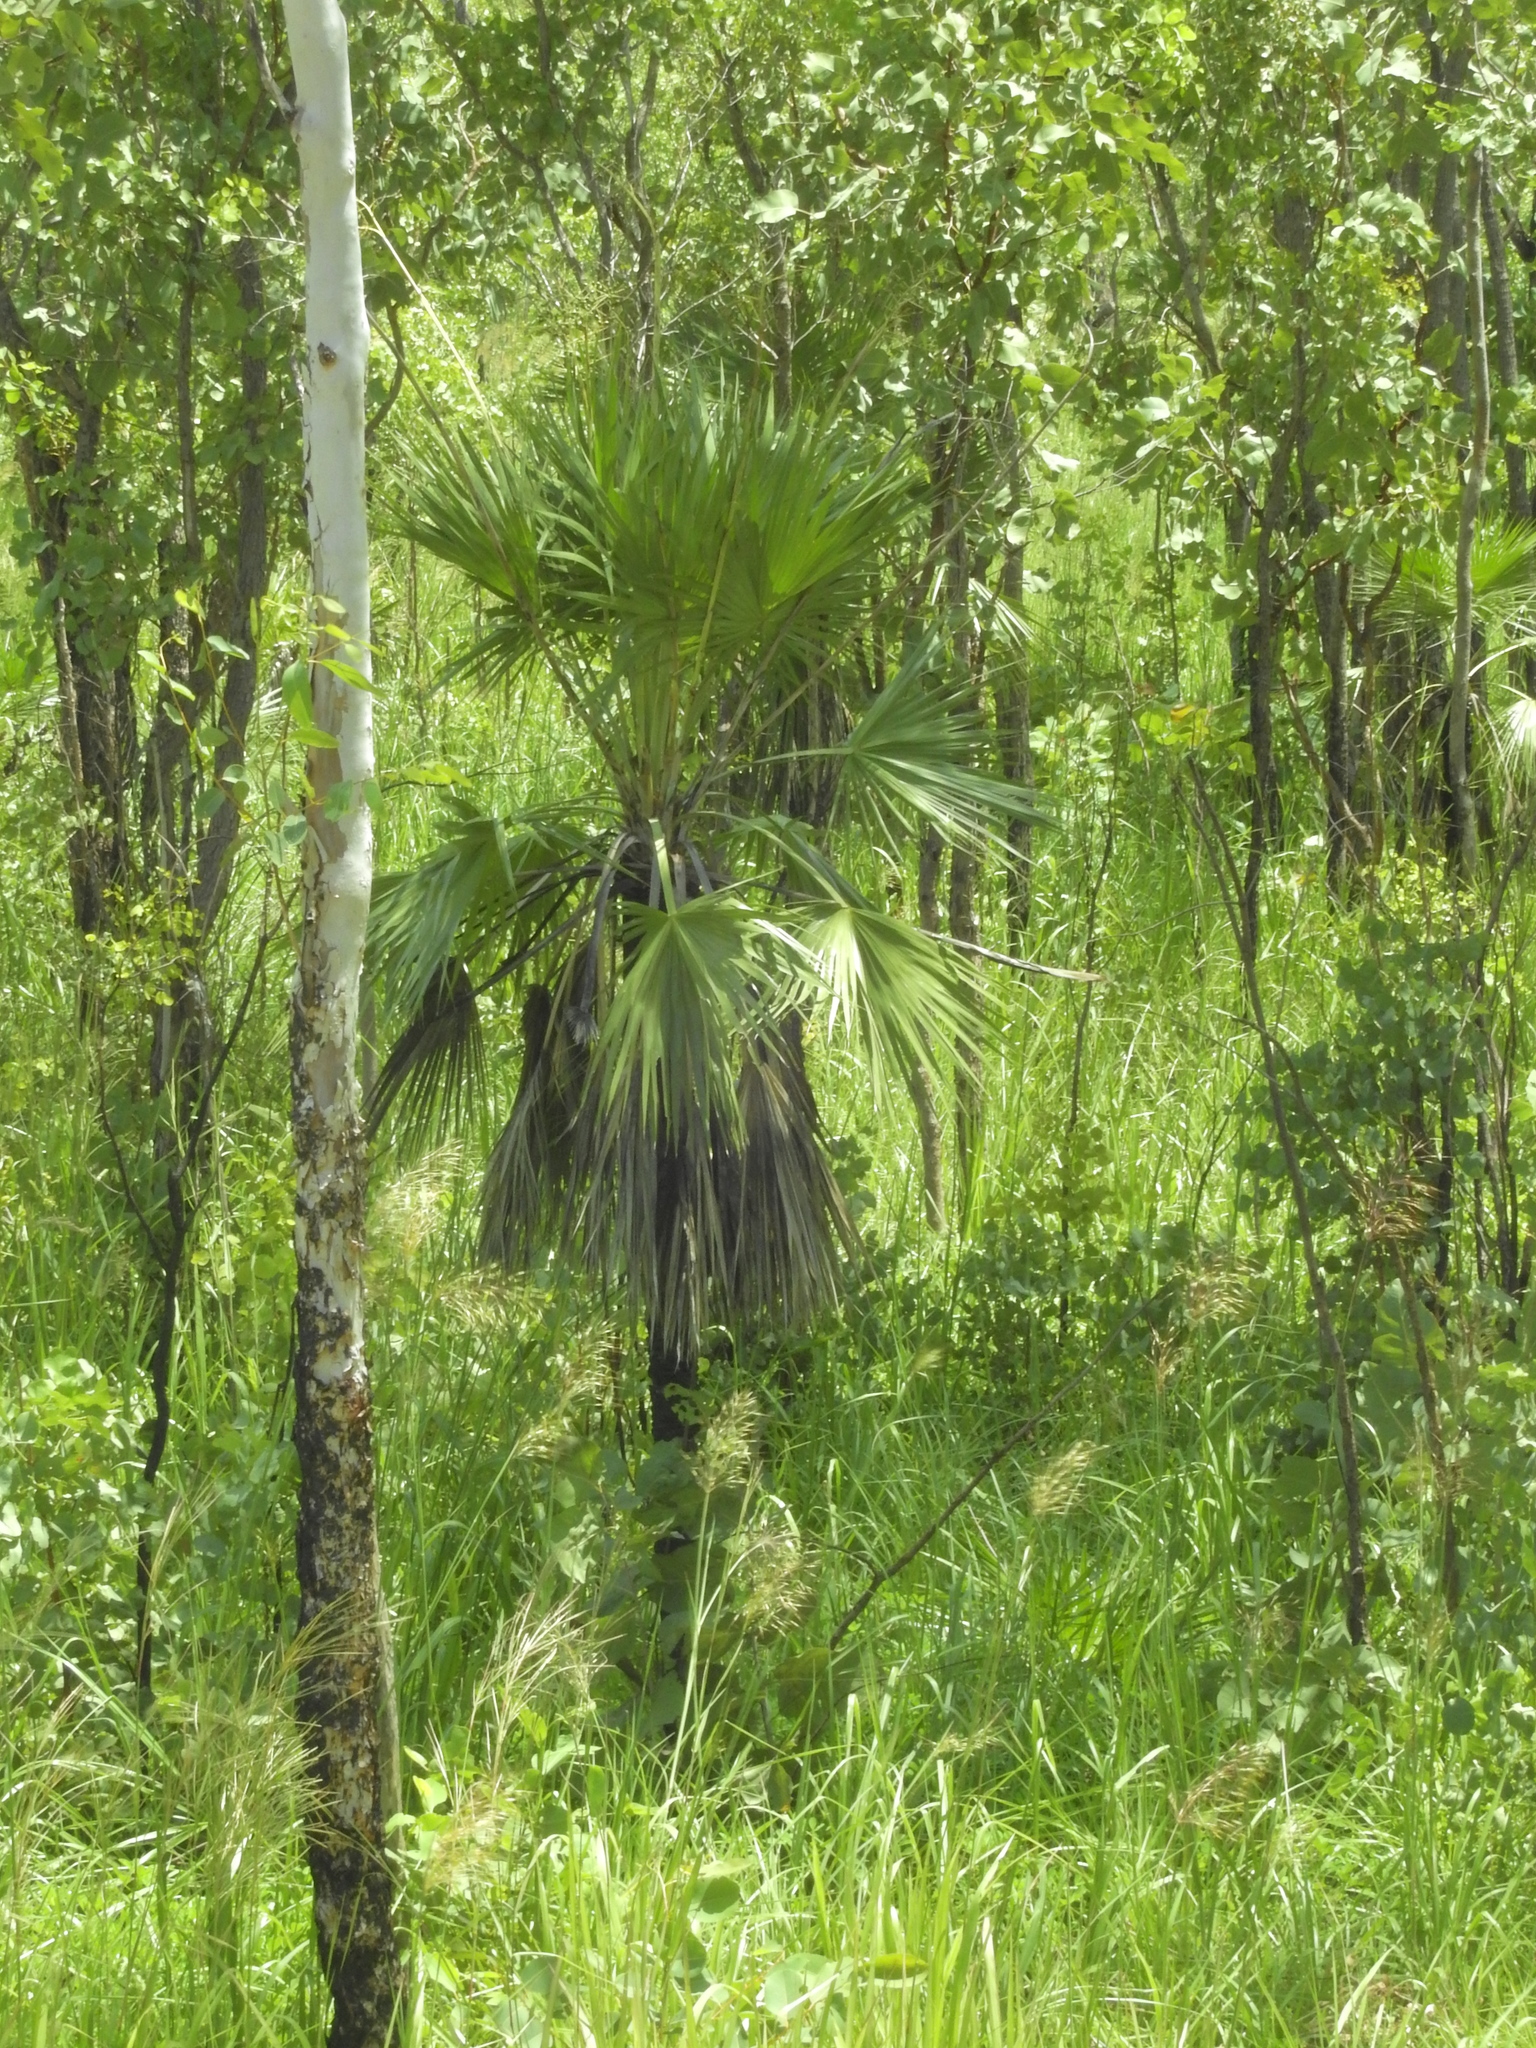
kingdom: Plantae
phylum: Tracheophyta
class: Liliopsida
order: Arecales
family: Arecaceae
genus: Livistona
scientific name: Livistona humilis
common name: Cabbage palm
